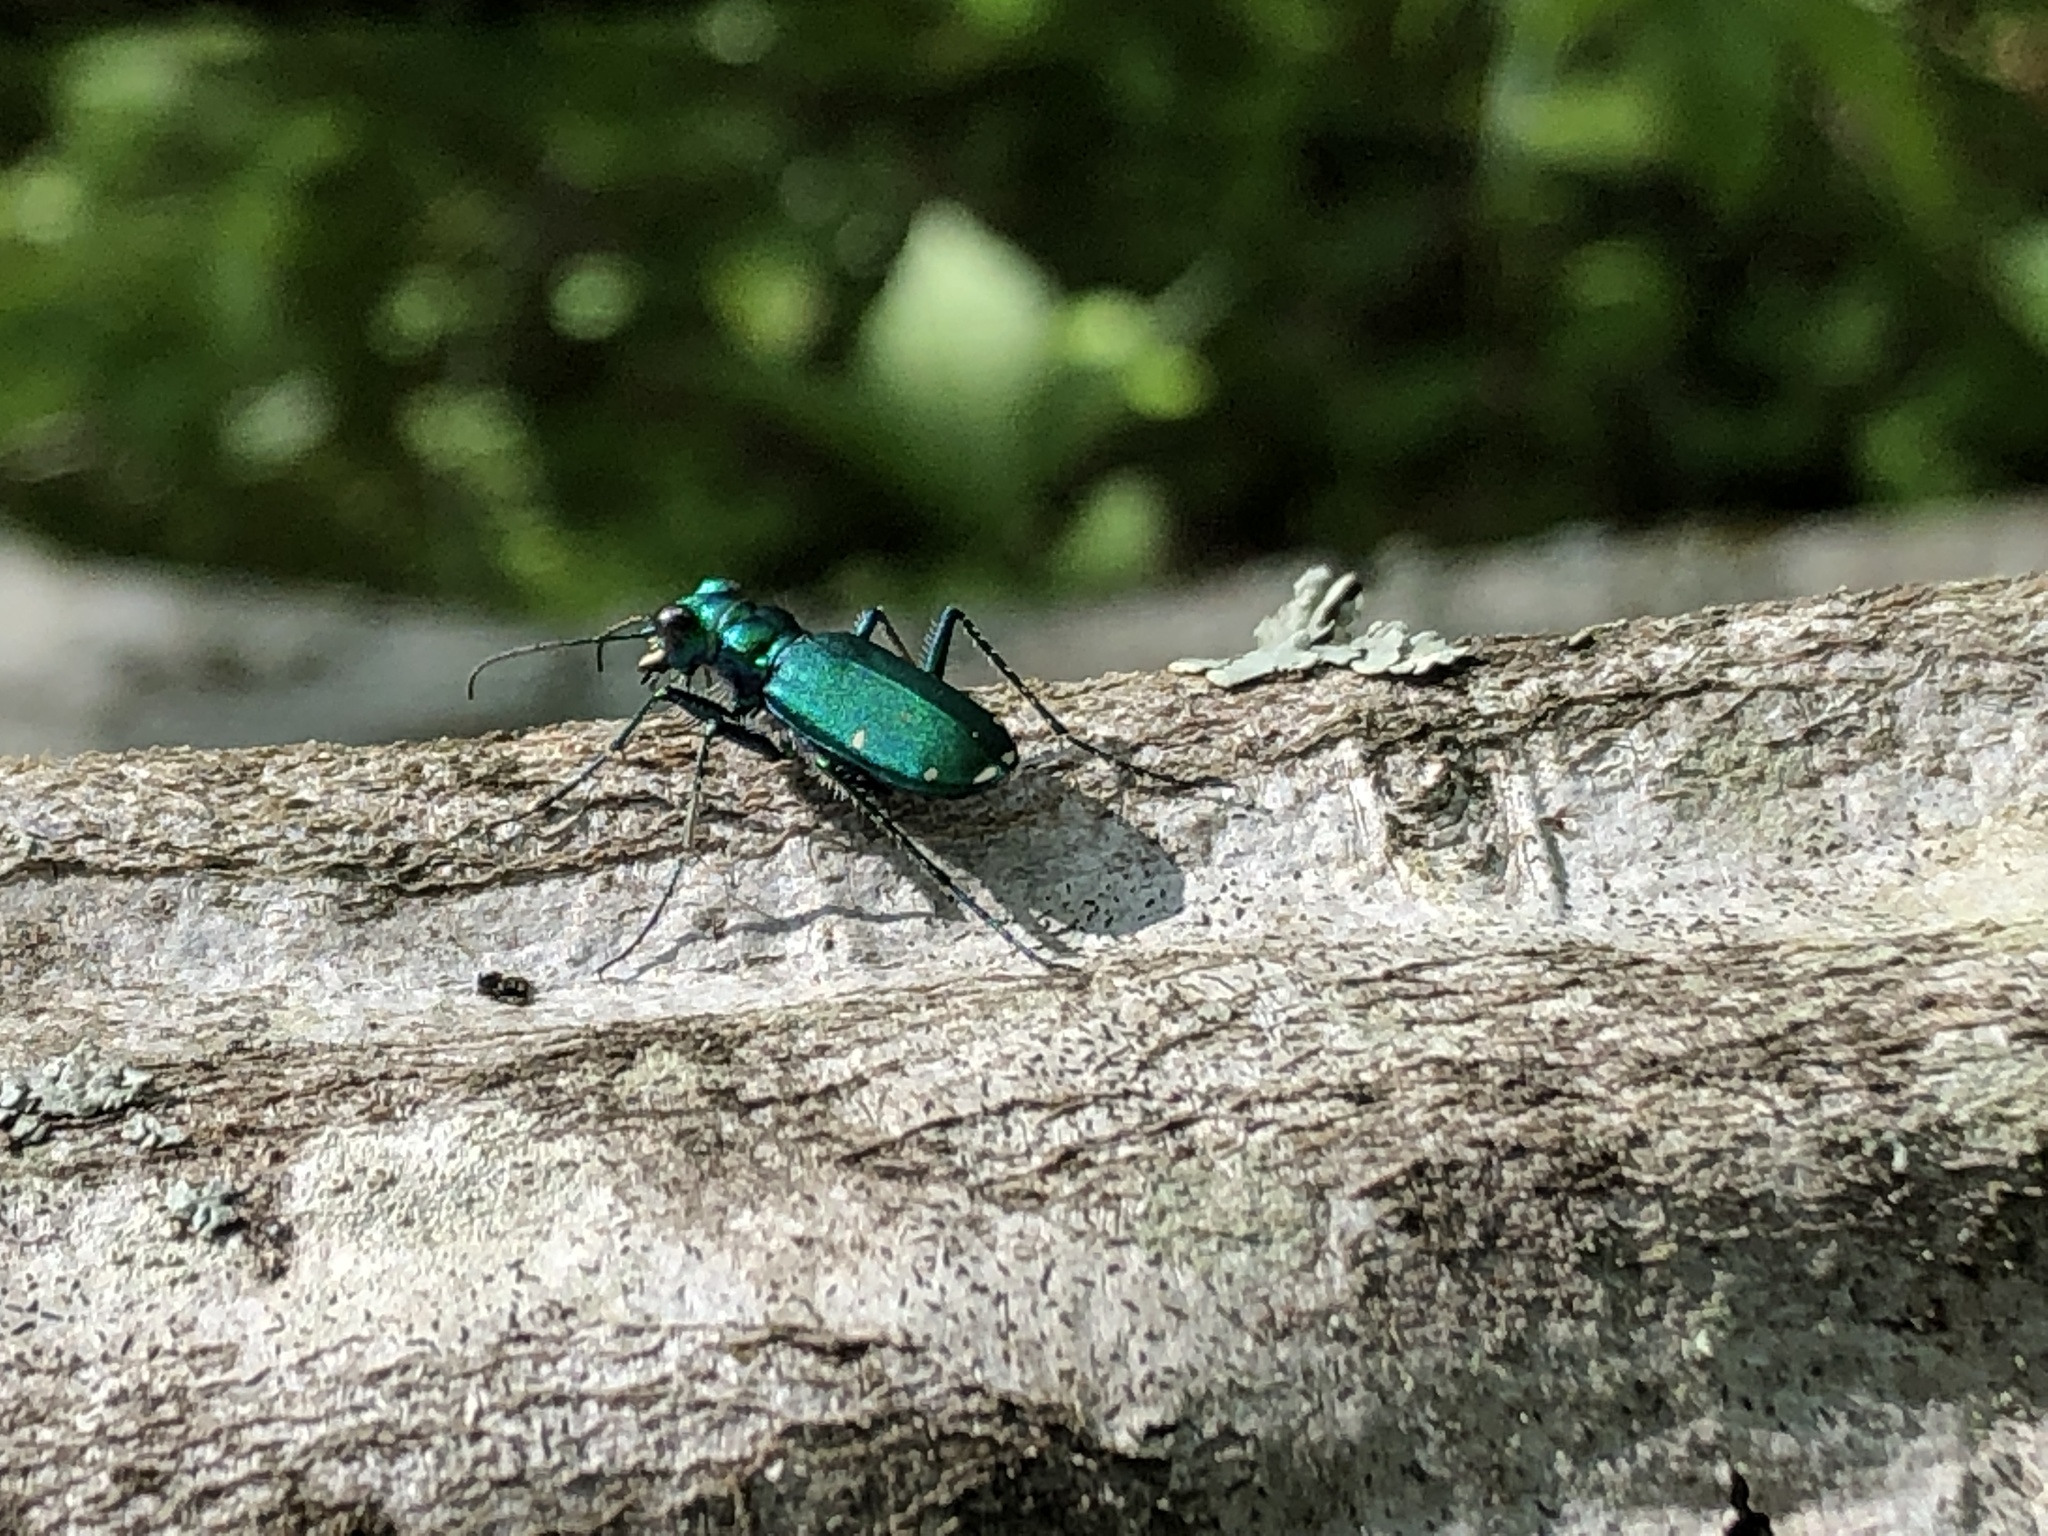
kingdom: Animalia
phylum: Arthropoda
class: Insecta
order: Coleoptera
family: Carabidae
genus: Cicindela
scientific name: Cicindela sexguttata
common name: Six-spotted tiger beetle
